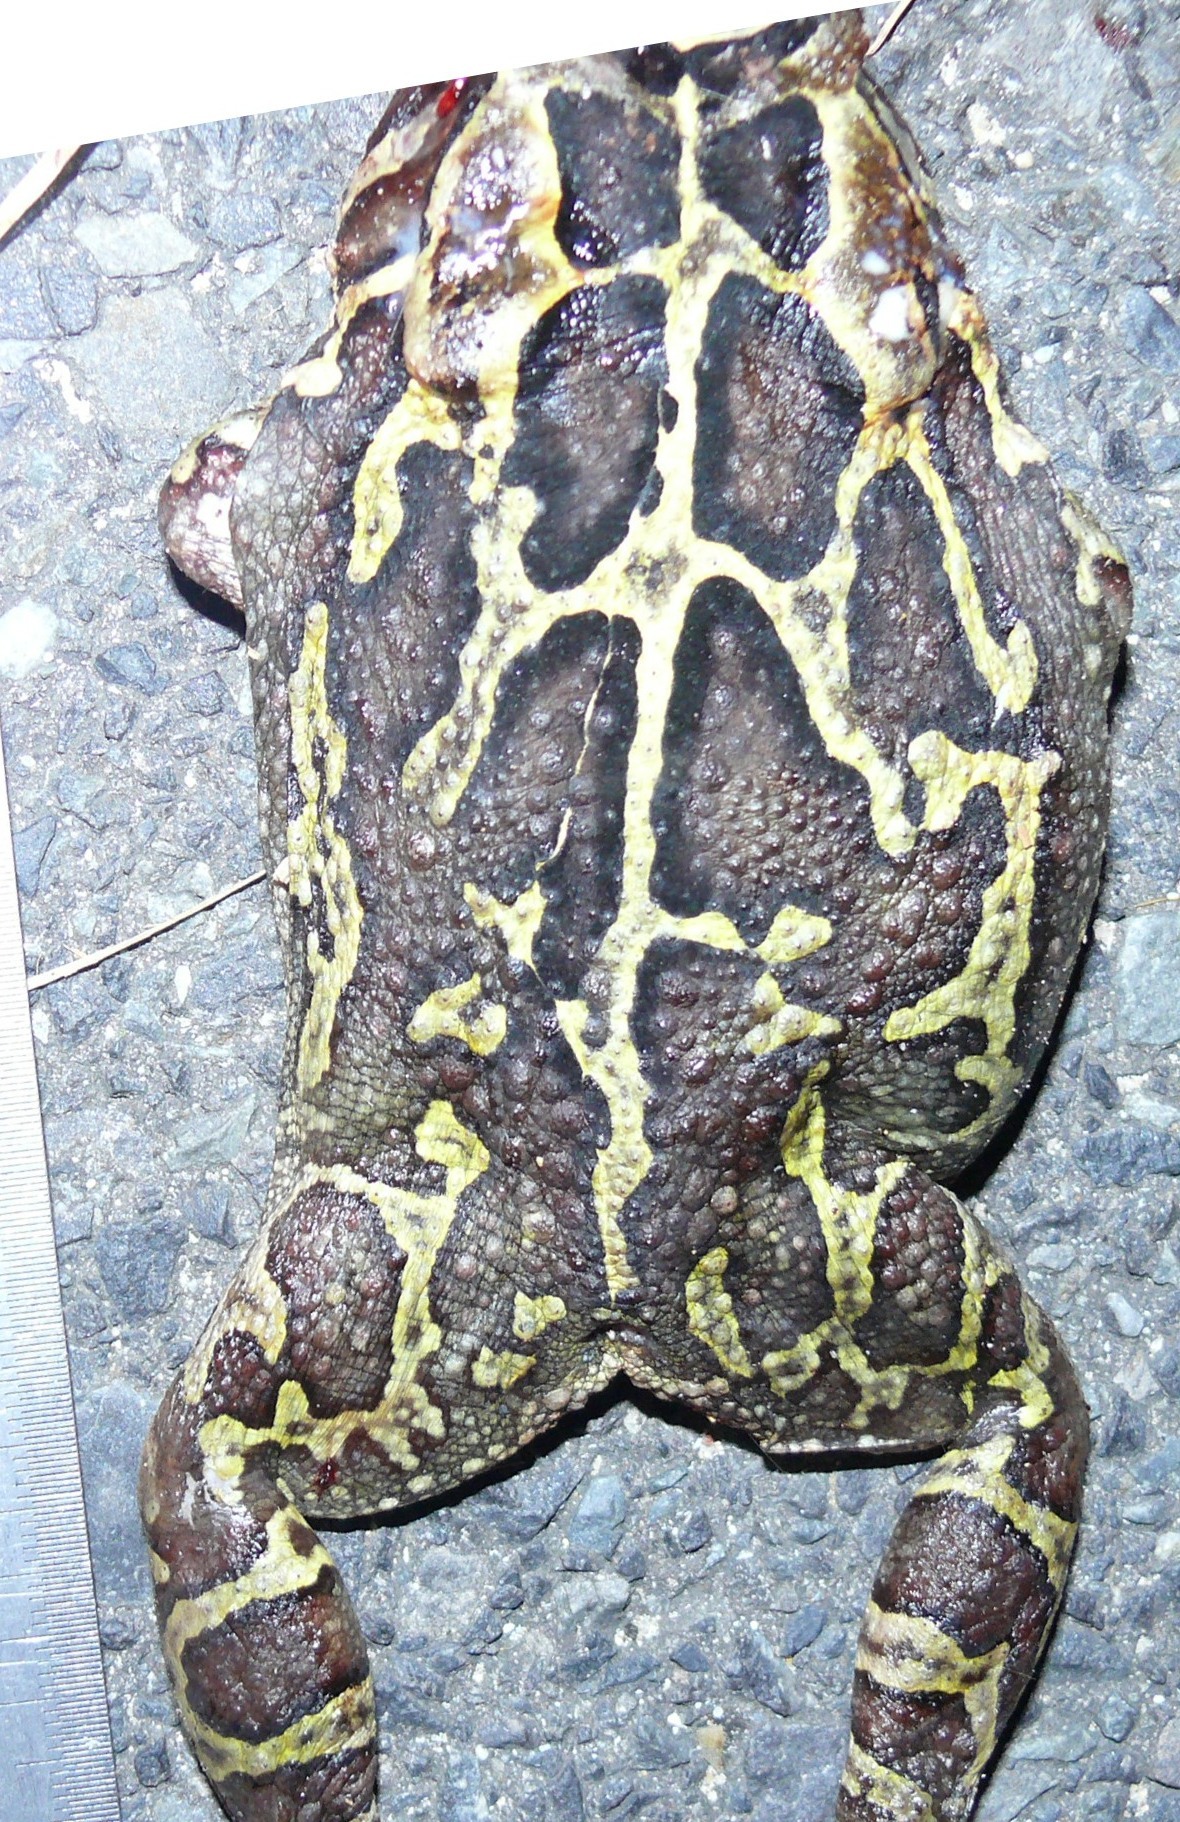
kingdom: Animalia
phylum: Chordata
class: Amphibia
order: Anura
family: Bufonidae
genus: Sclerophrys
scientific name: Sclerophrys pantherina
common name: Panther toad
